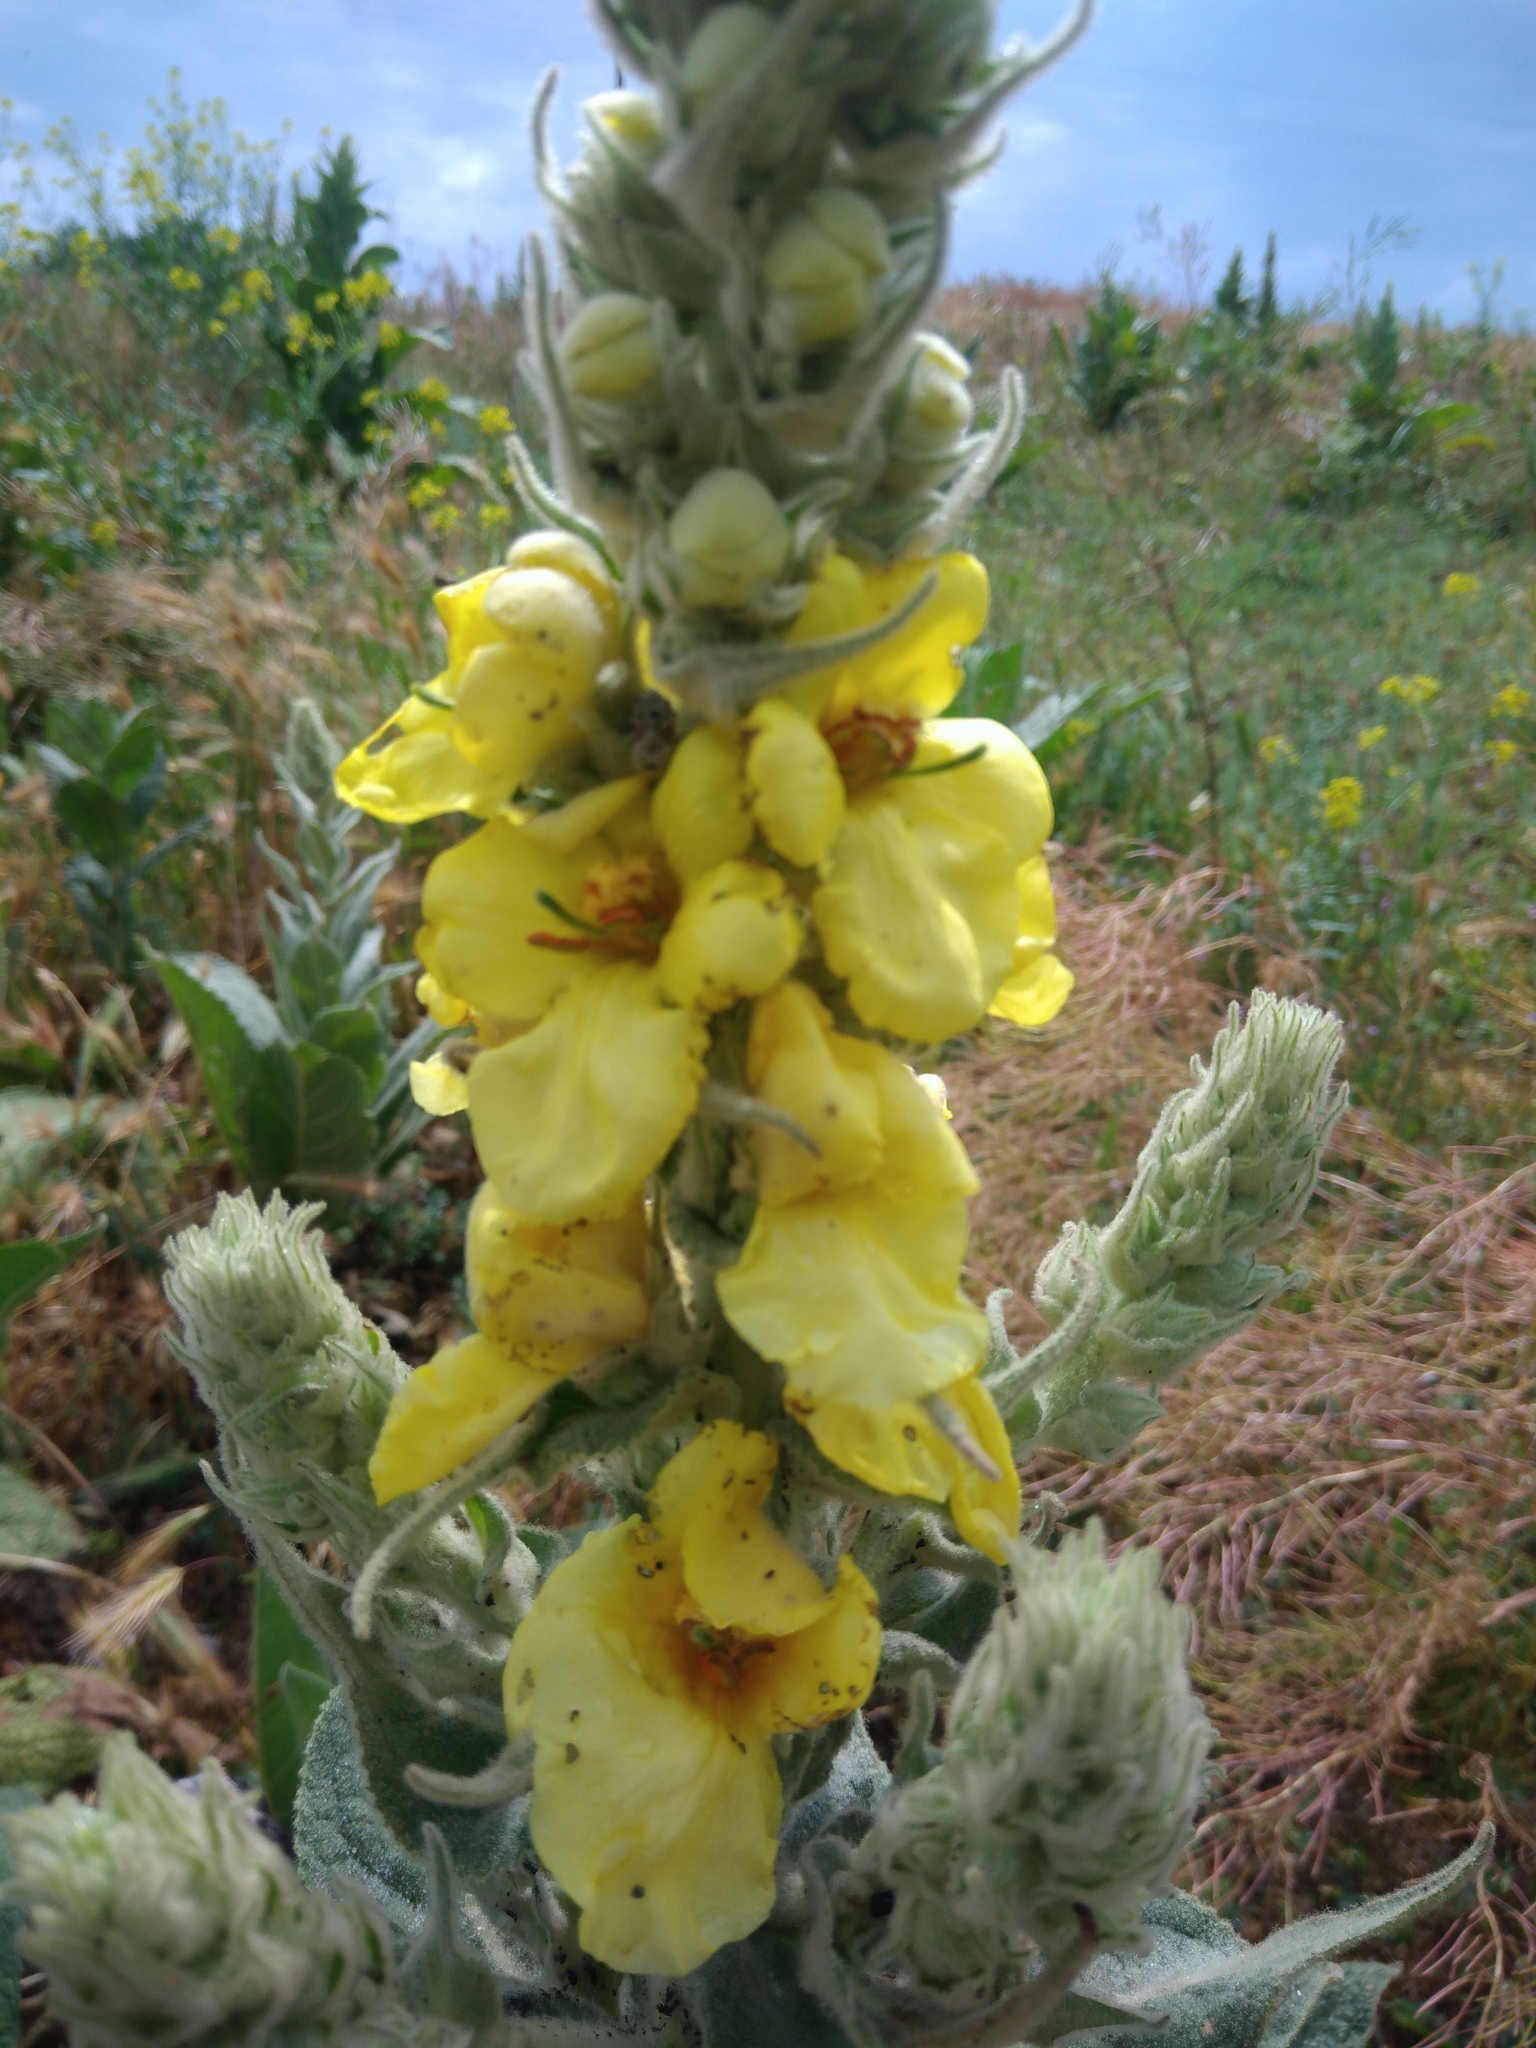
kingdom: Plantae
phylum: Tracheophyta
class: Magnoliopsida
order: Lamiales
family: Scrophulariaceae
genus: Verbascum
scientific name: Verbascum ovalifolium
